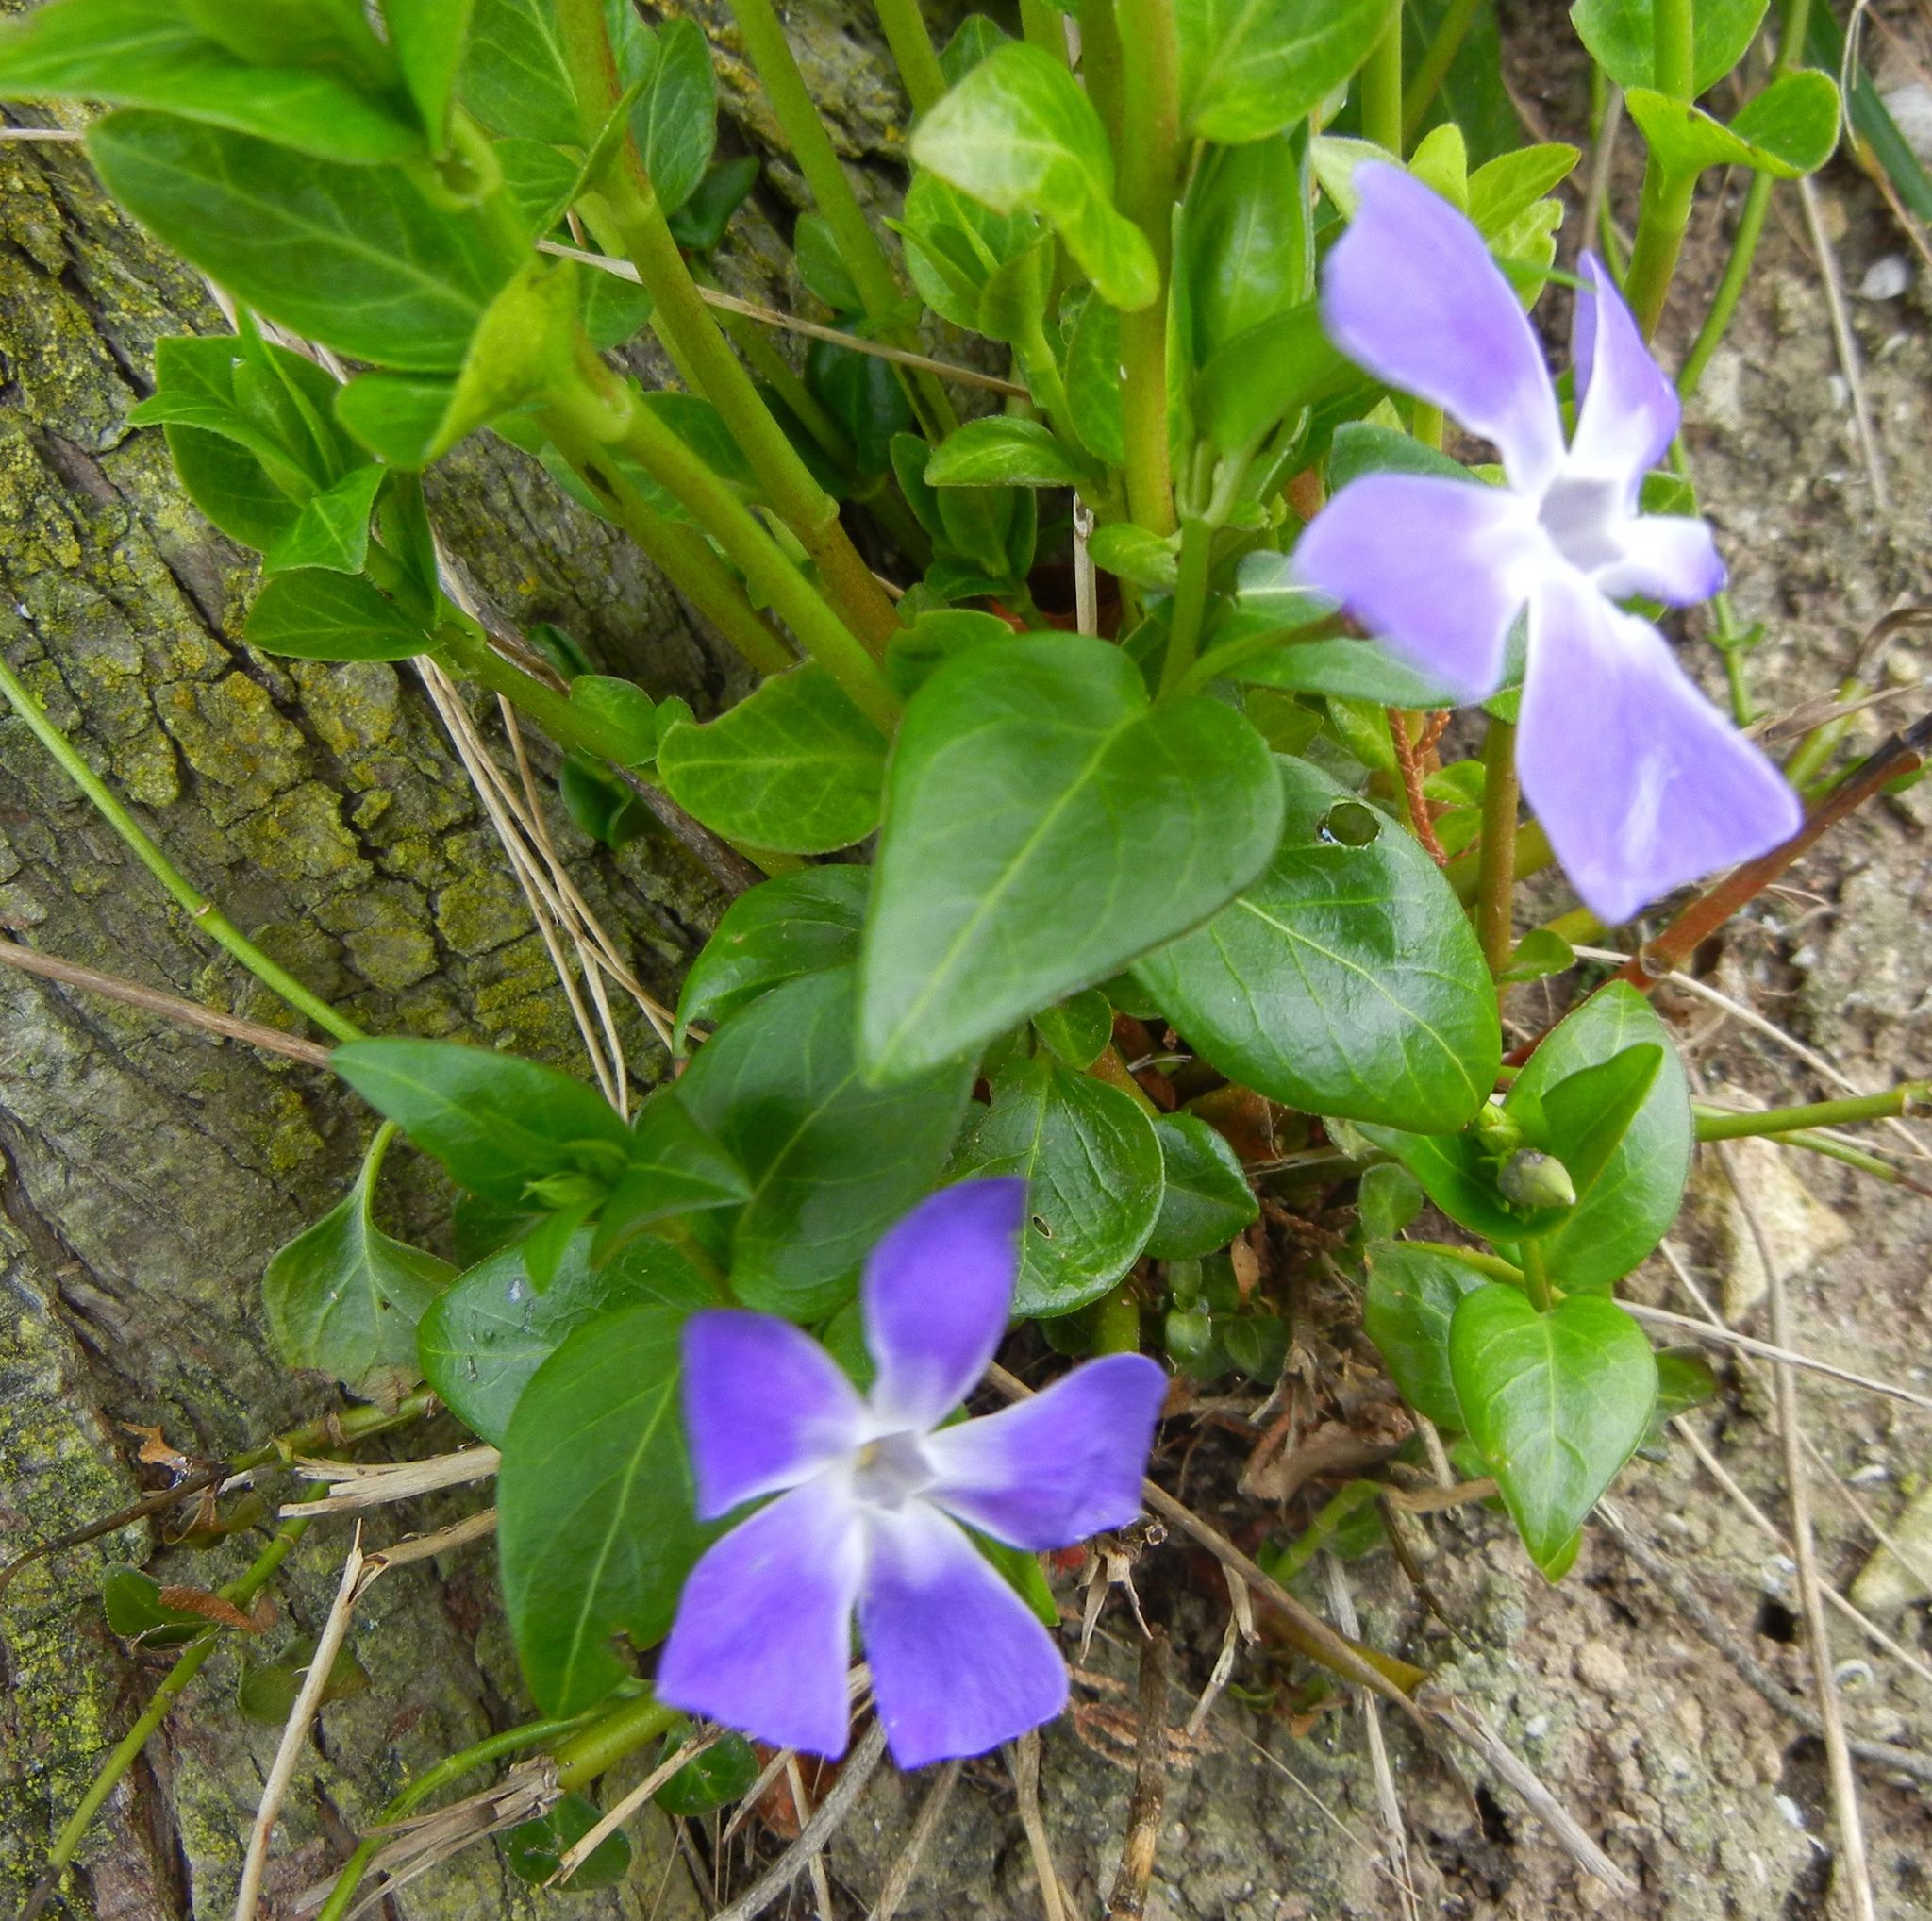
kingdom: Plantae
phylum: Tracheophyta
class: Magnoliopsida
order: Gentianales
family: Apocynaceae
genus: Vinca
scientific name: Vinca major
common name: Greater periwinkle
